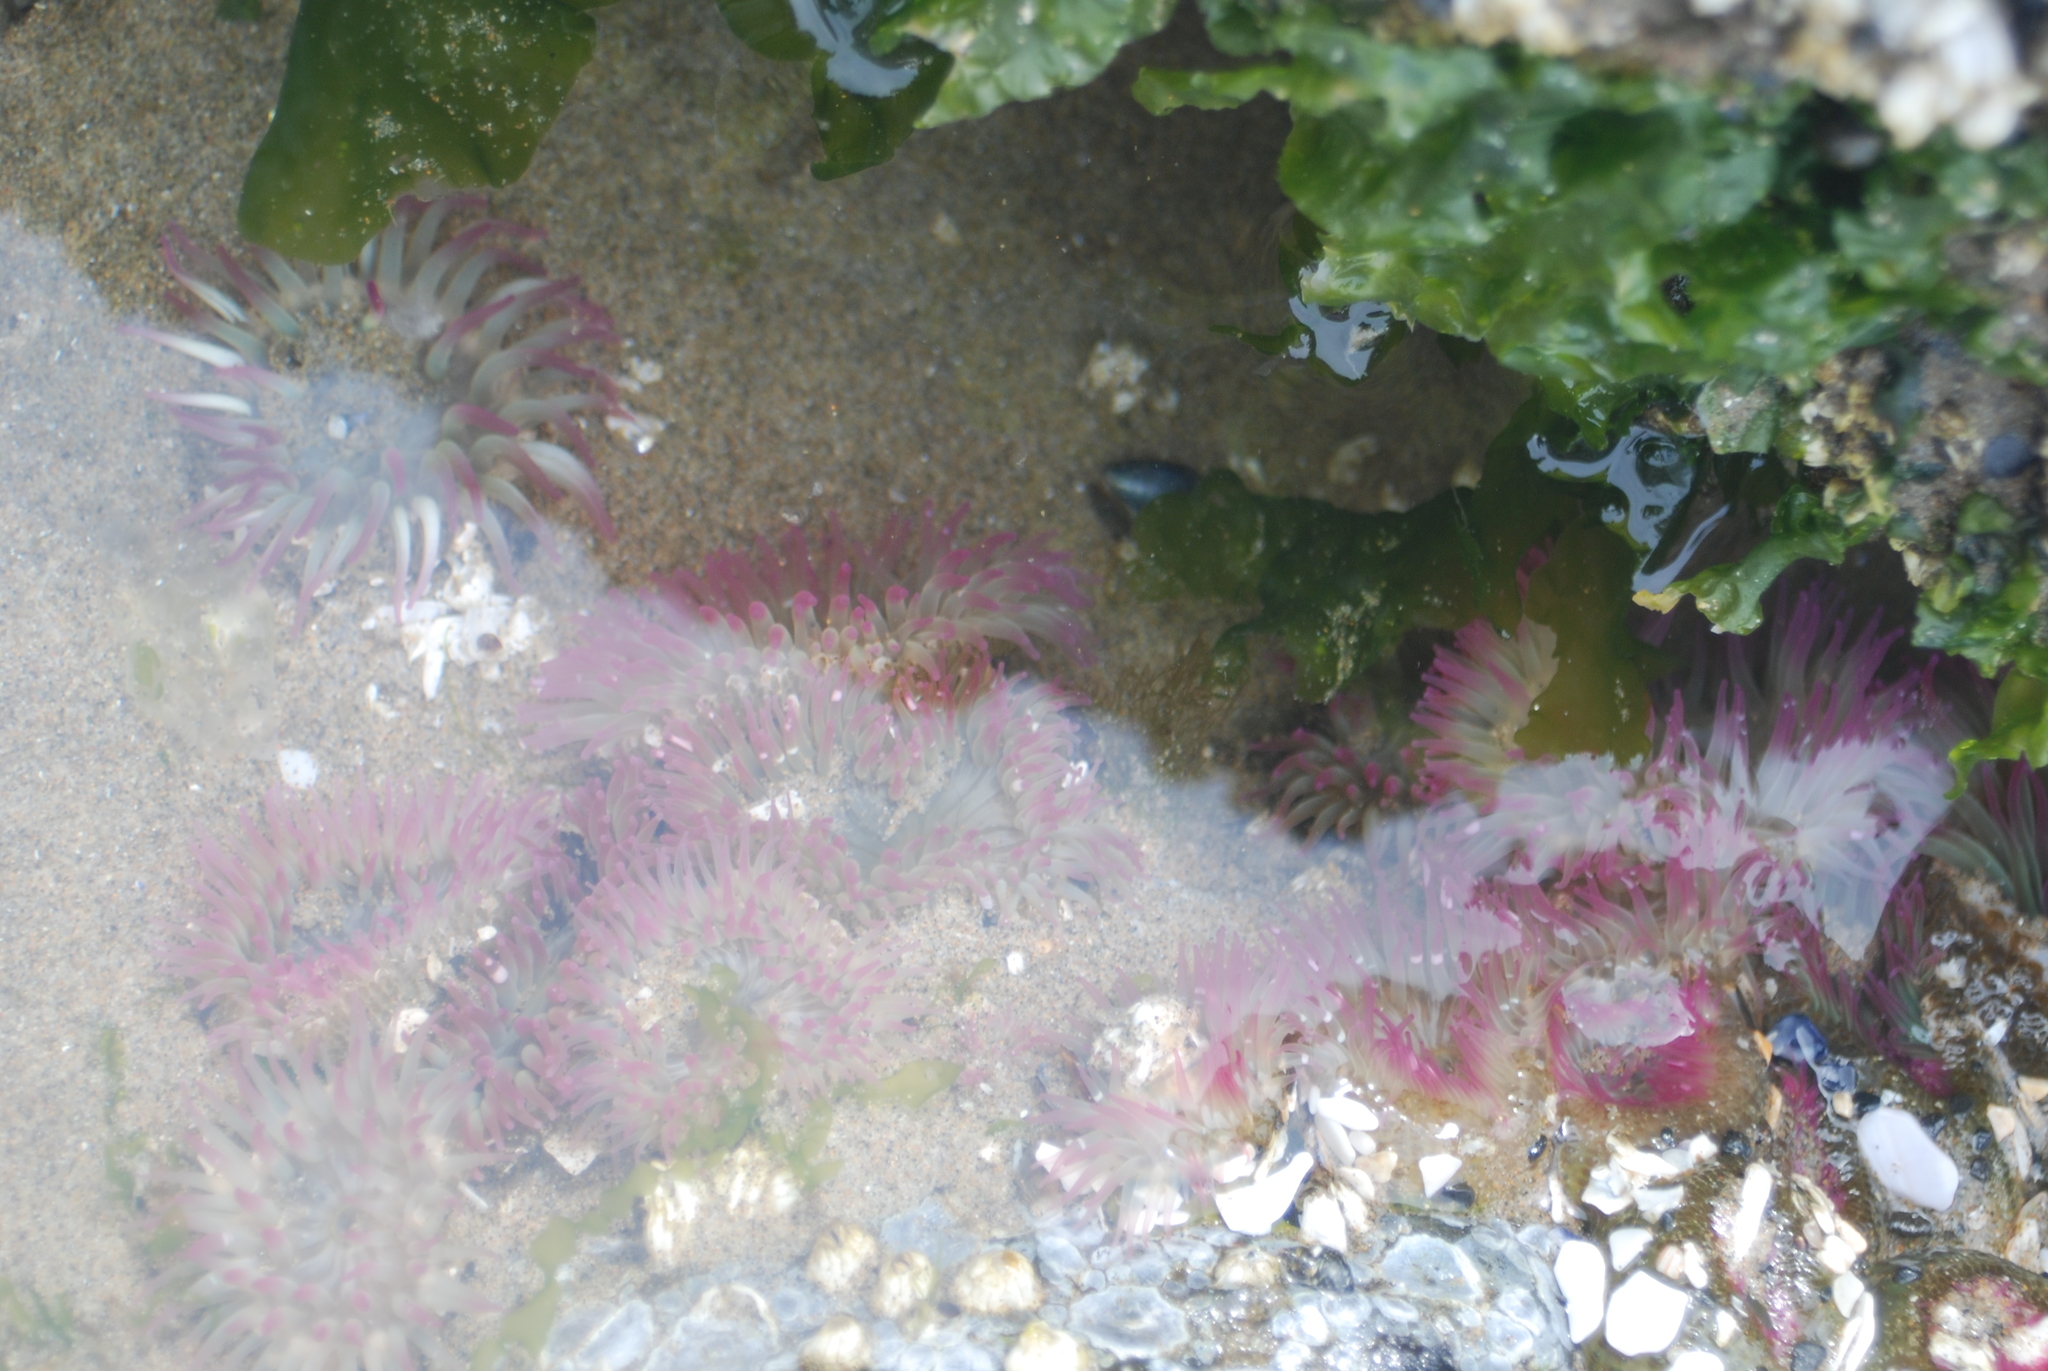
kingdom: Animalia
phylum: Cnidaria
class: Anthozoa
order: Actiniaria
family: Actiniidae
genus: Anthopleura
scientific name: Anthopleura elegantissima
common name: Clonal anemone
